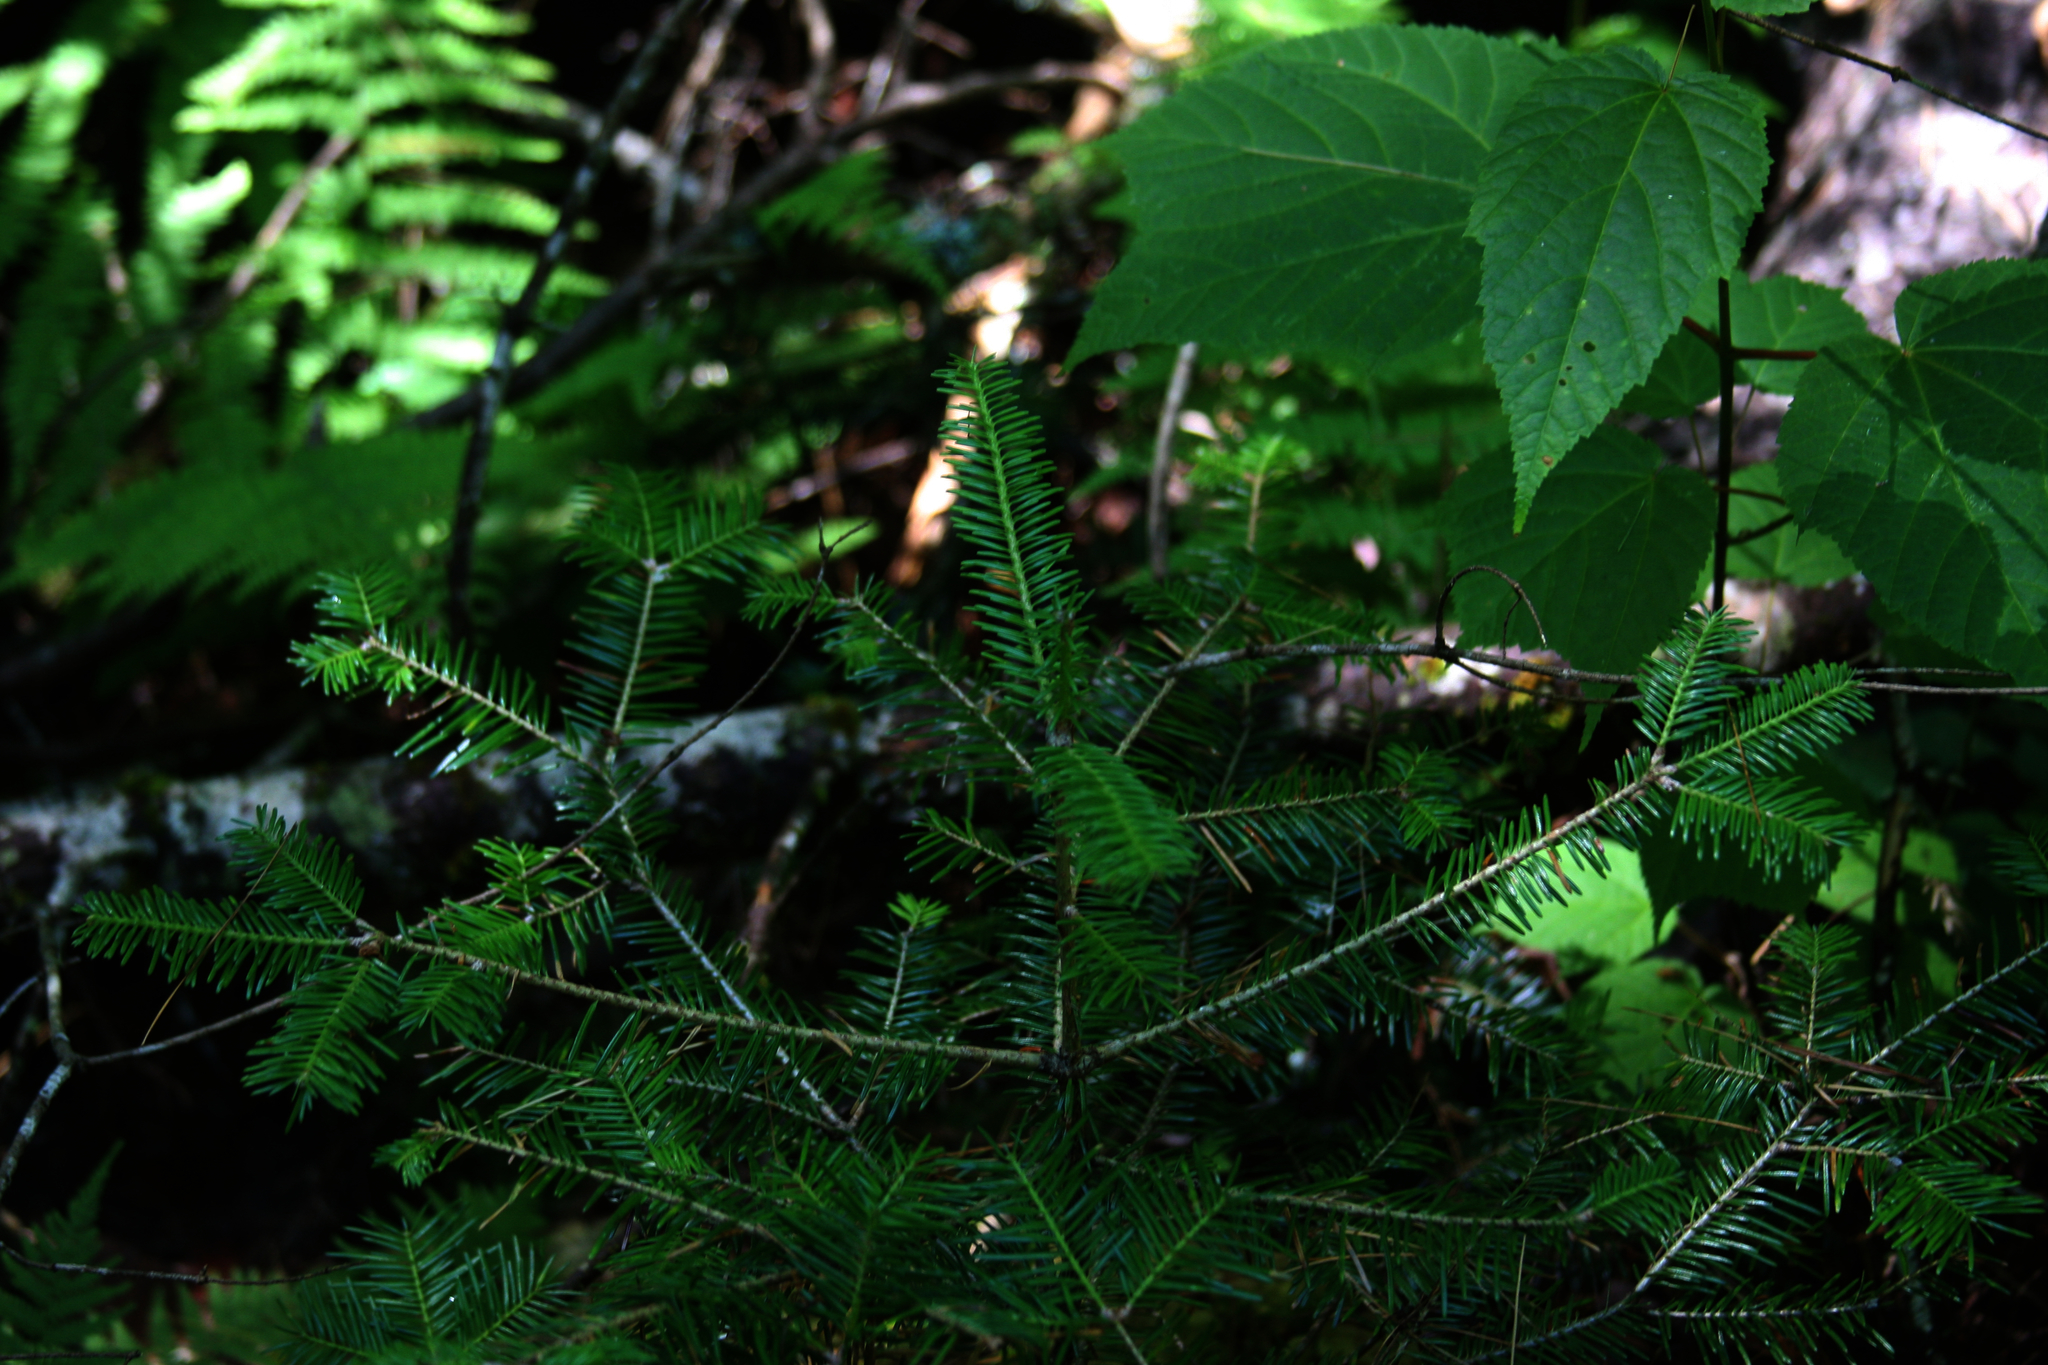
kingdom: Plantae
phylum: Tracheophyta
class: Pinopsida
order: Pinales
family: Pinaceae
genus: Abies
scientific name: Abies balsamea
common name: Balsam fir
